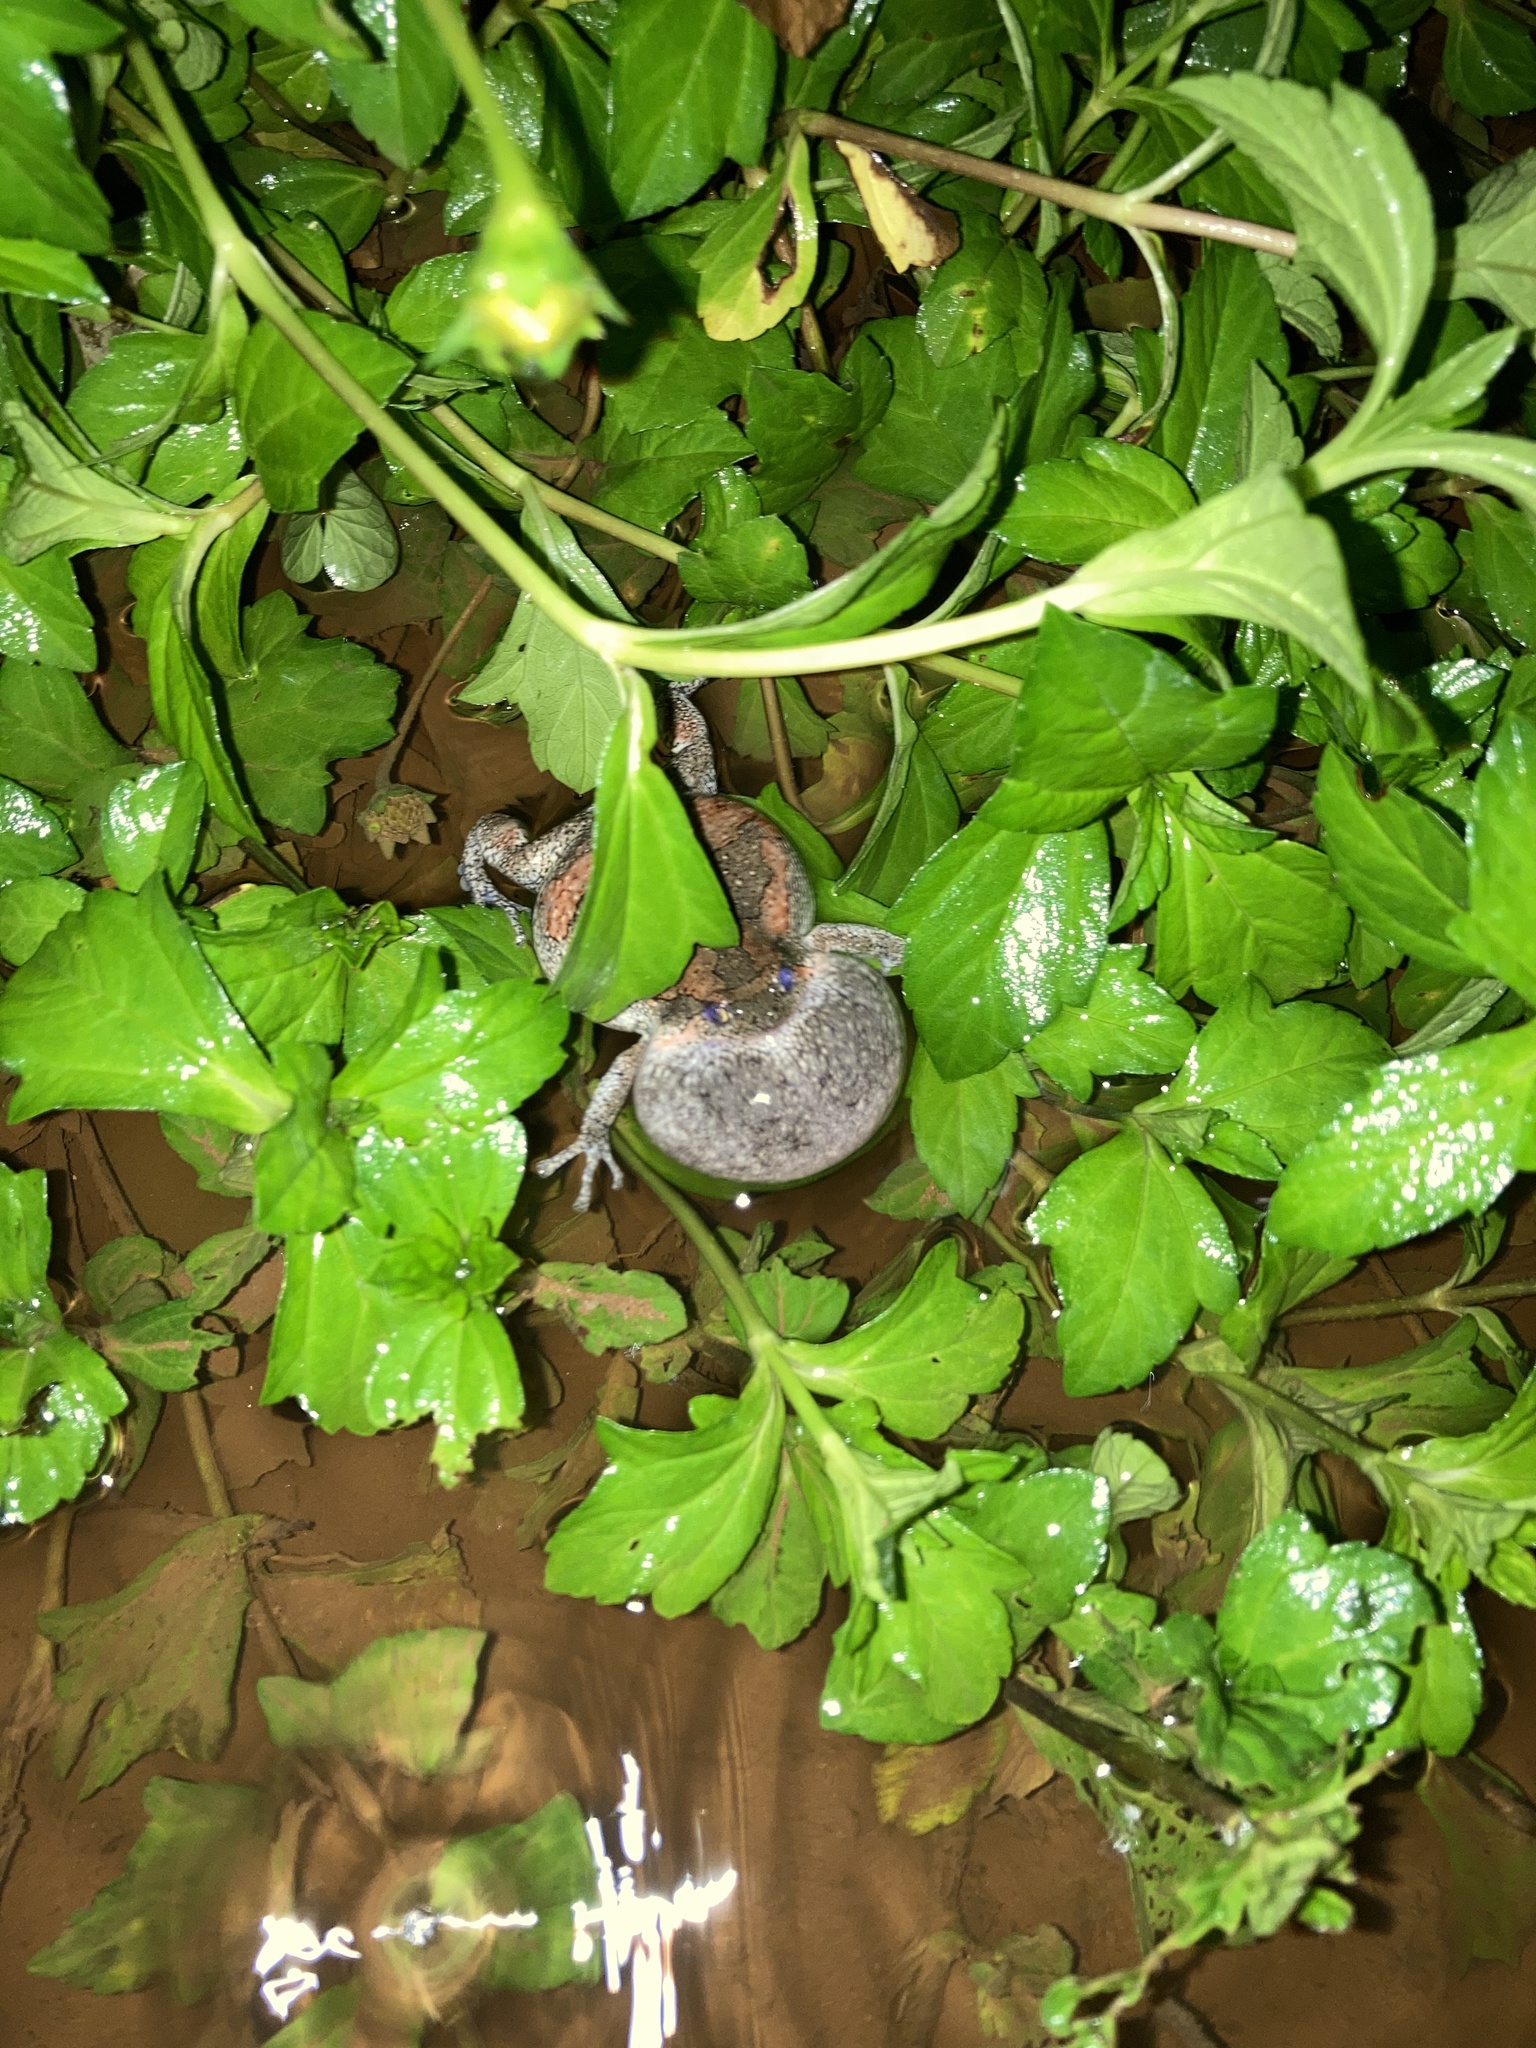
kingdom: Animalia
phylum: Chordata
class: Amphibia
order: Anura
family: Microhylidae
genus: Uperodon
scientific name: Uperodon taprobanicus
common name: Ceylon kaloula
